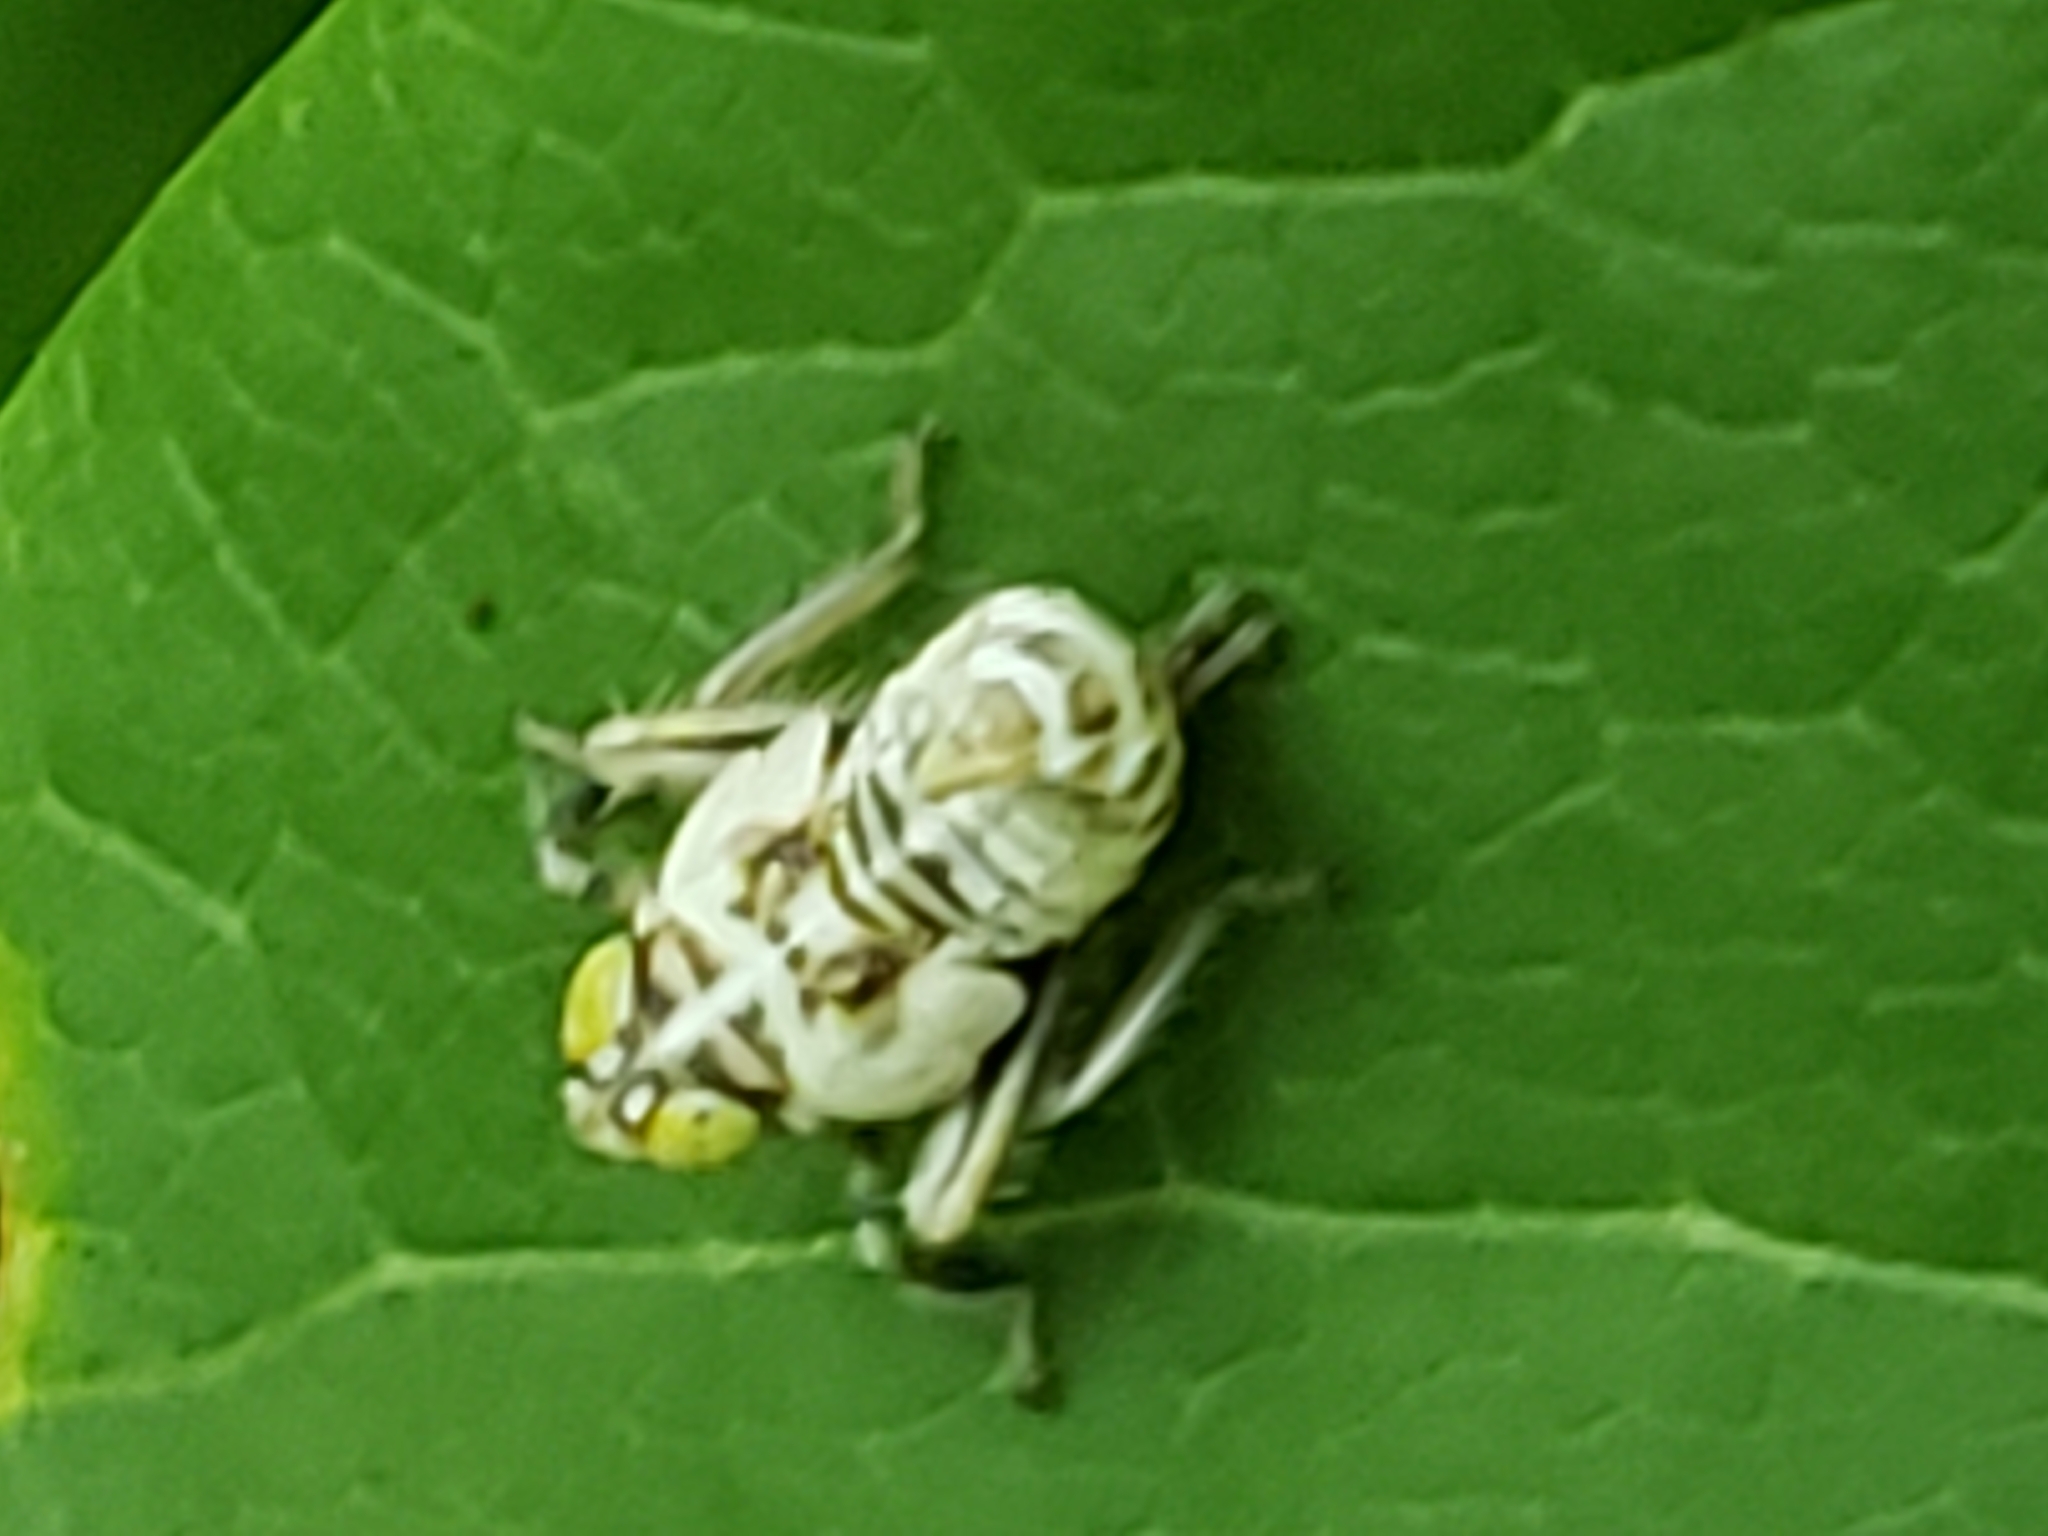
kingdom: Animalia
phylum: Arthropoda
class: Insecta
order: Hemiptera
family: Cicadellidae
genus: Jikradia
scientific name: Jikradia olitoria
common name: Coppery leafhopper
